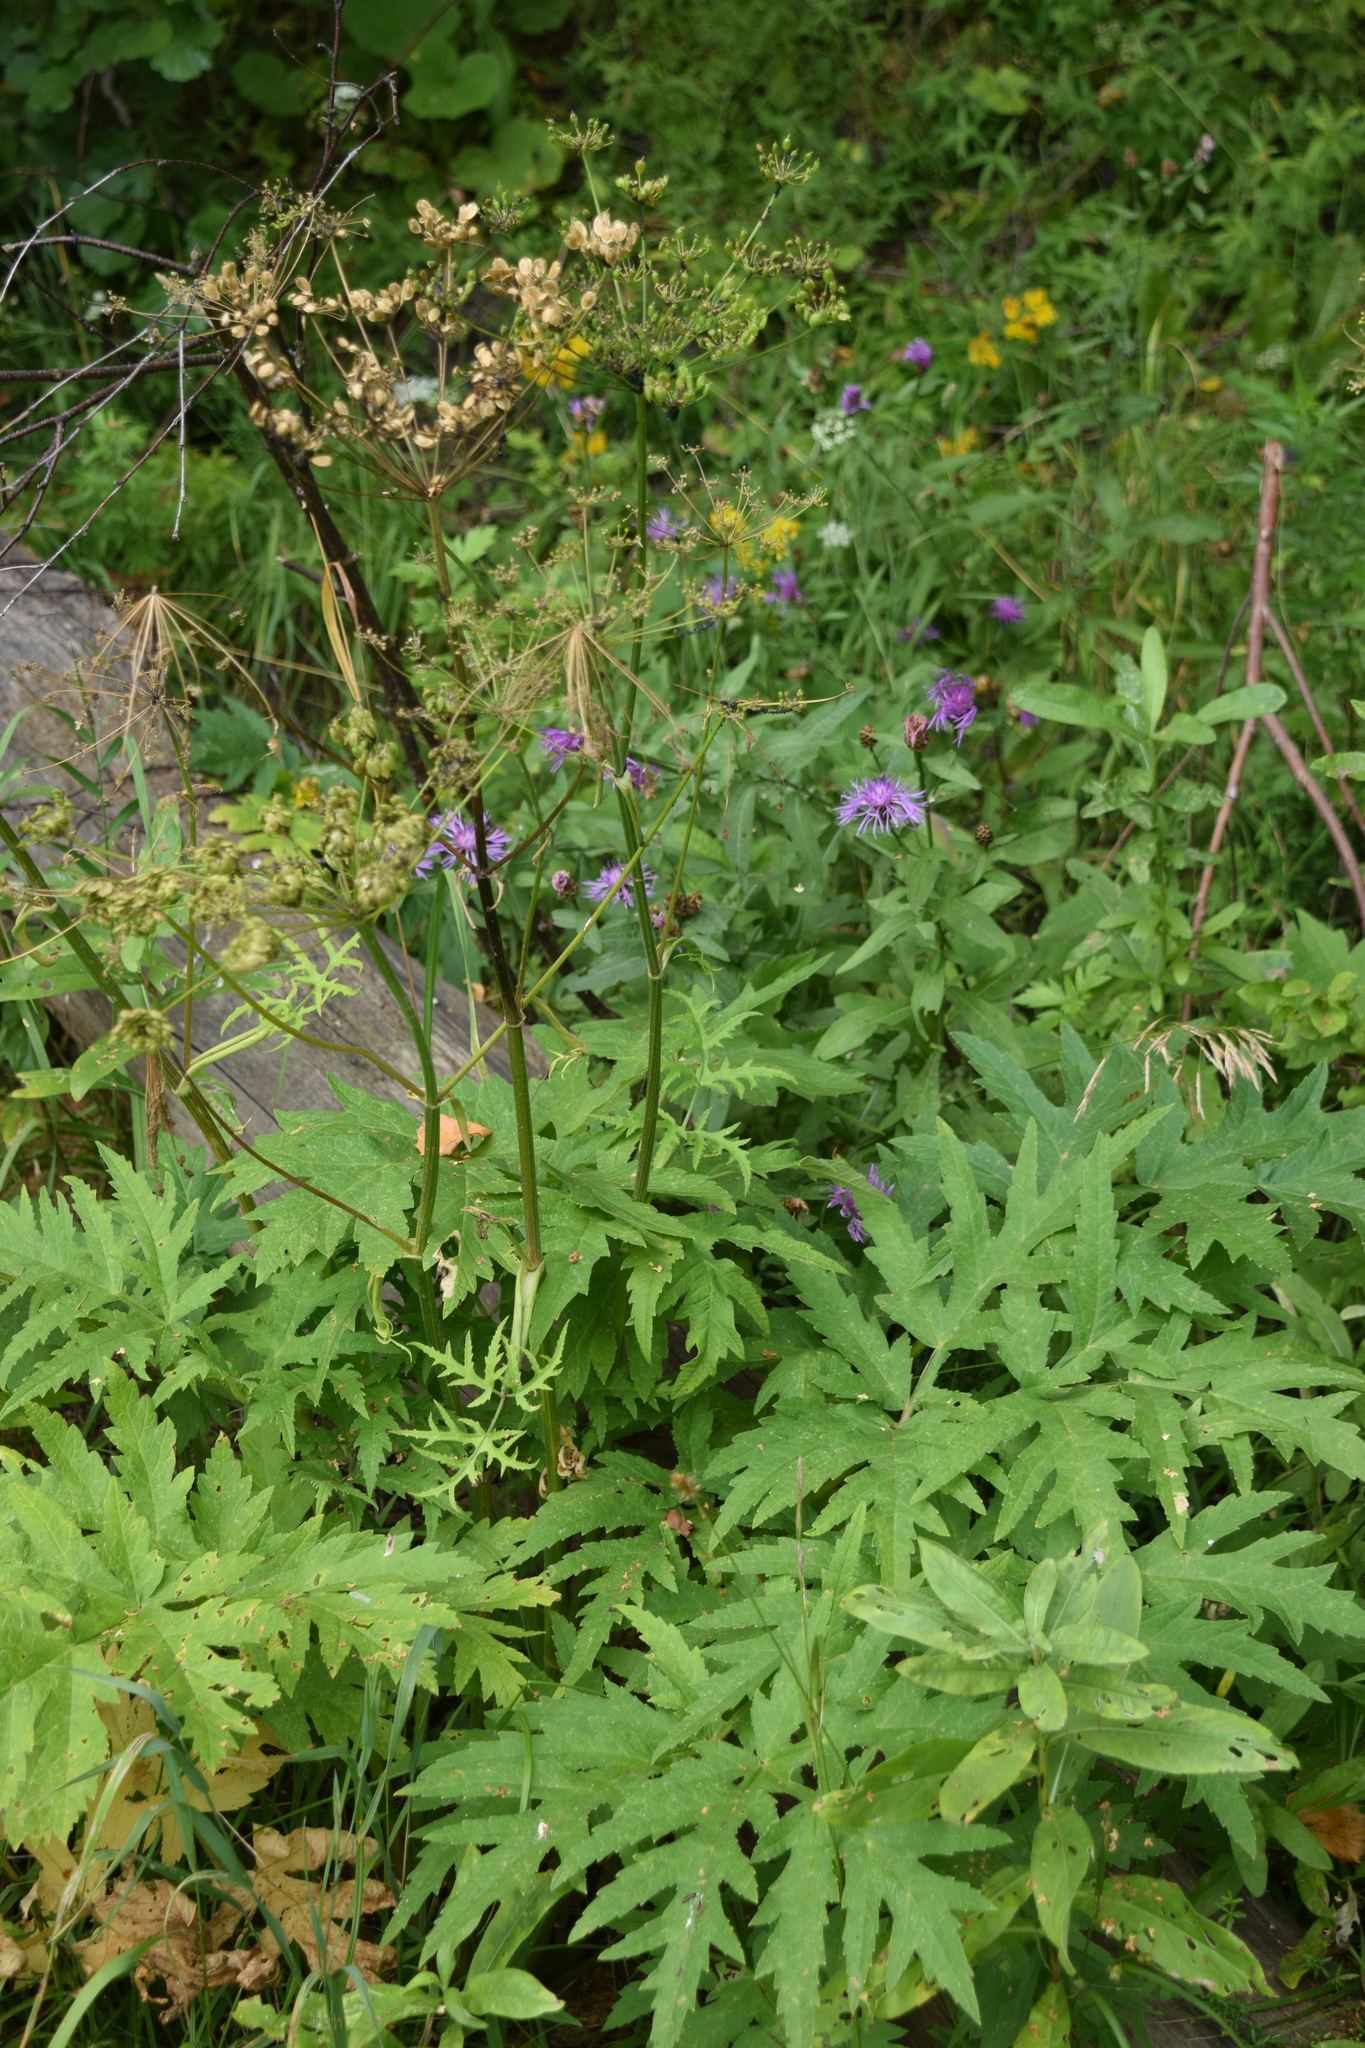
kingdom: Plantae
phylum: Tracheophyta
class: Magnoliopsida
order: Apiales
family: Apiaceae
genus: Heracleum
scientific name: Heracleum sphondylium
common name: Hogweed
